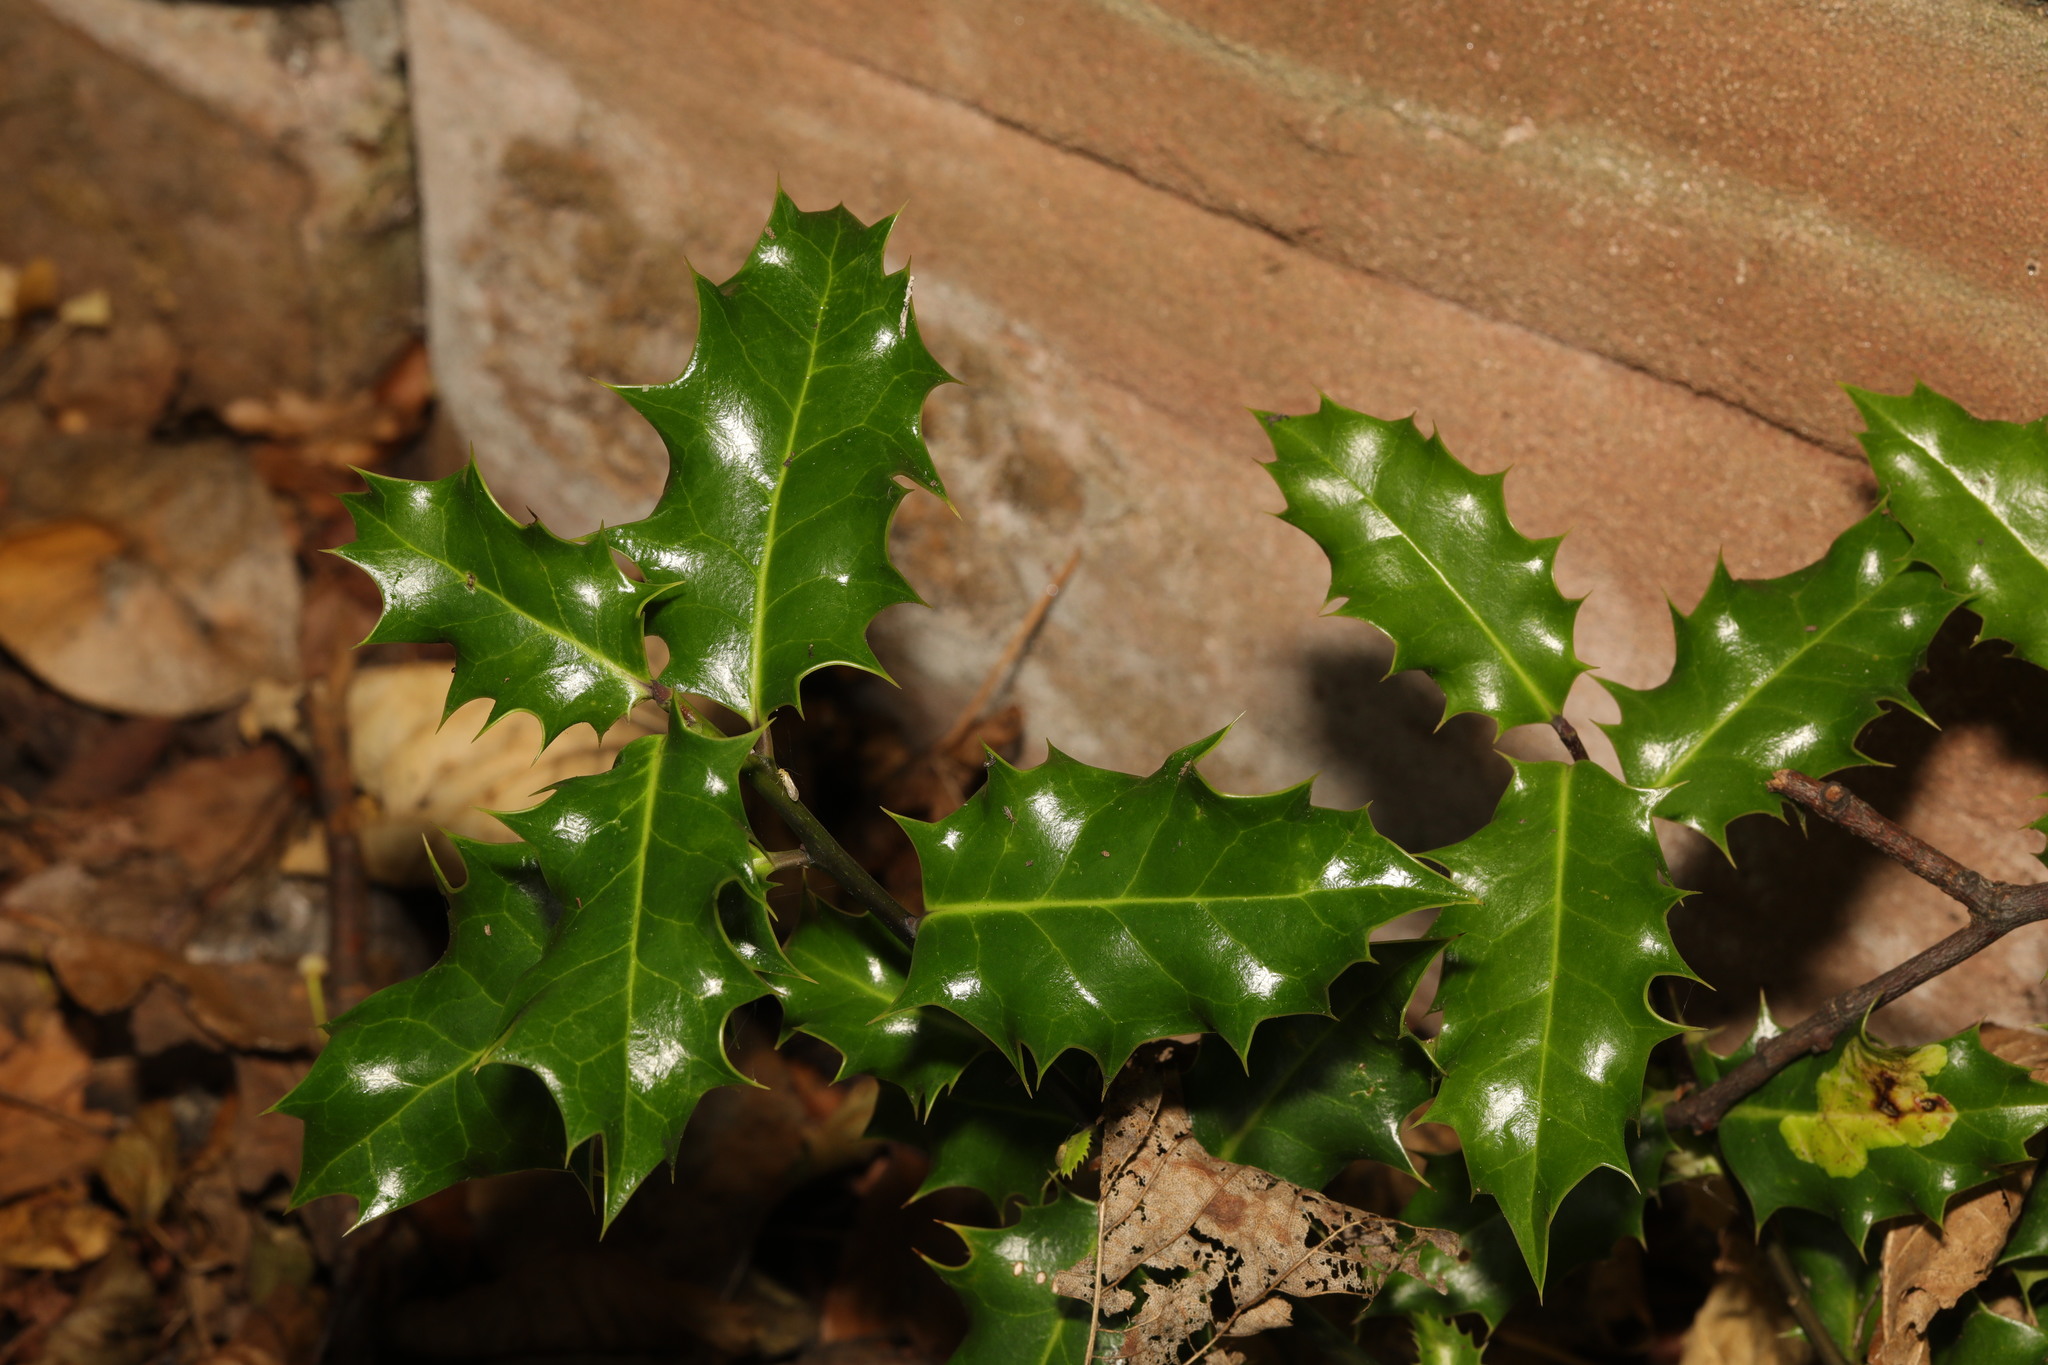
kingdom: Plantae
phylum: Tracheophyta
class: Magnoliopsida
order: Aquifoliales
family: Aquifoliaceae
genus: Ilex
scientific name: Ilex aquifolium
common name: English holly
